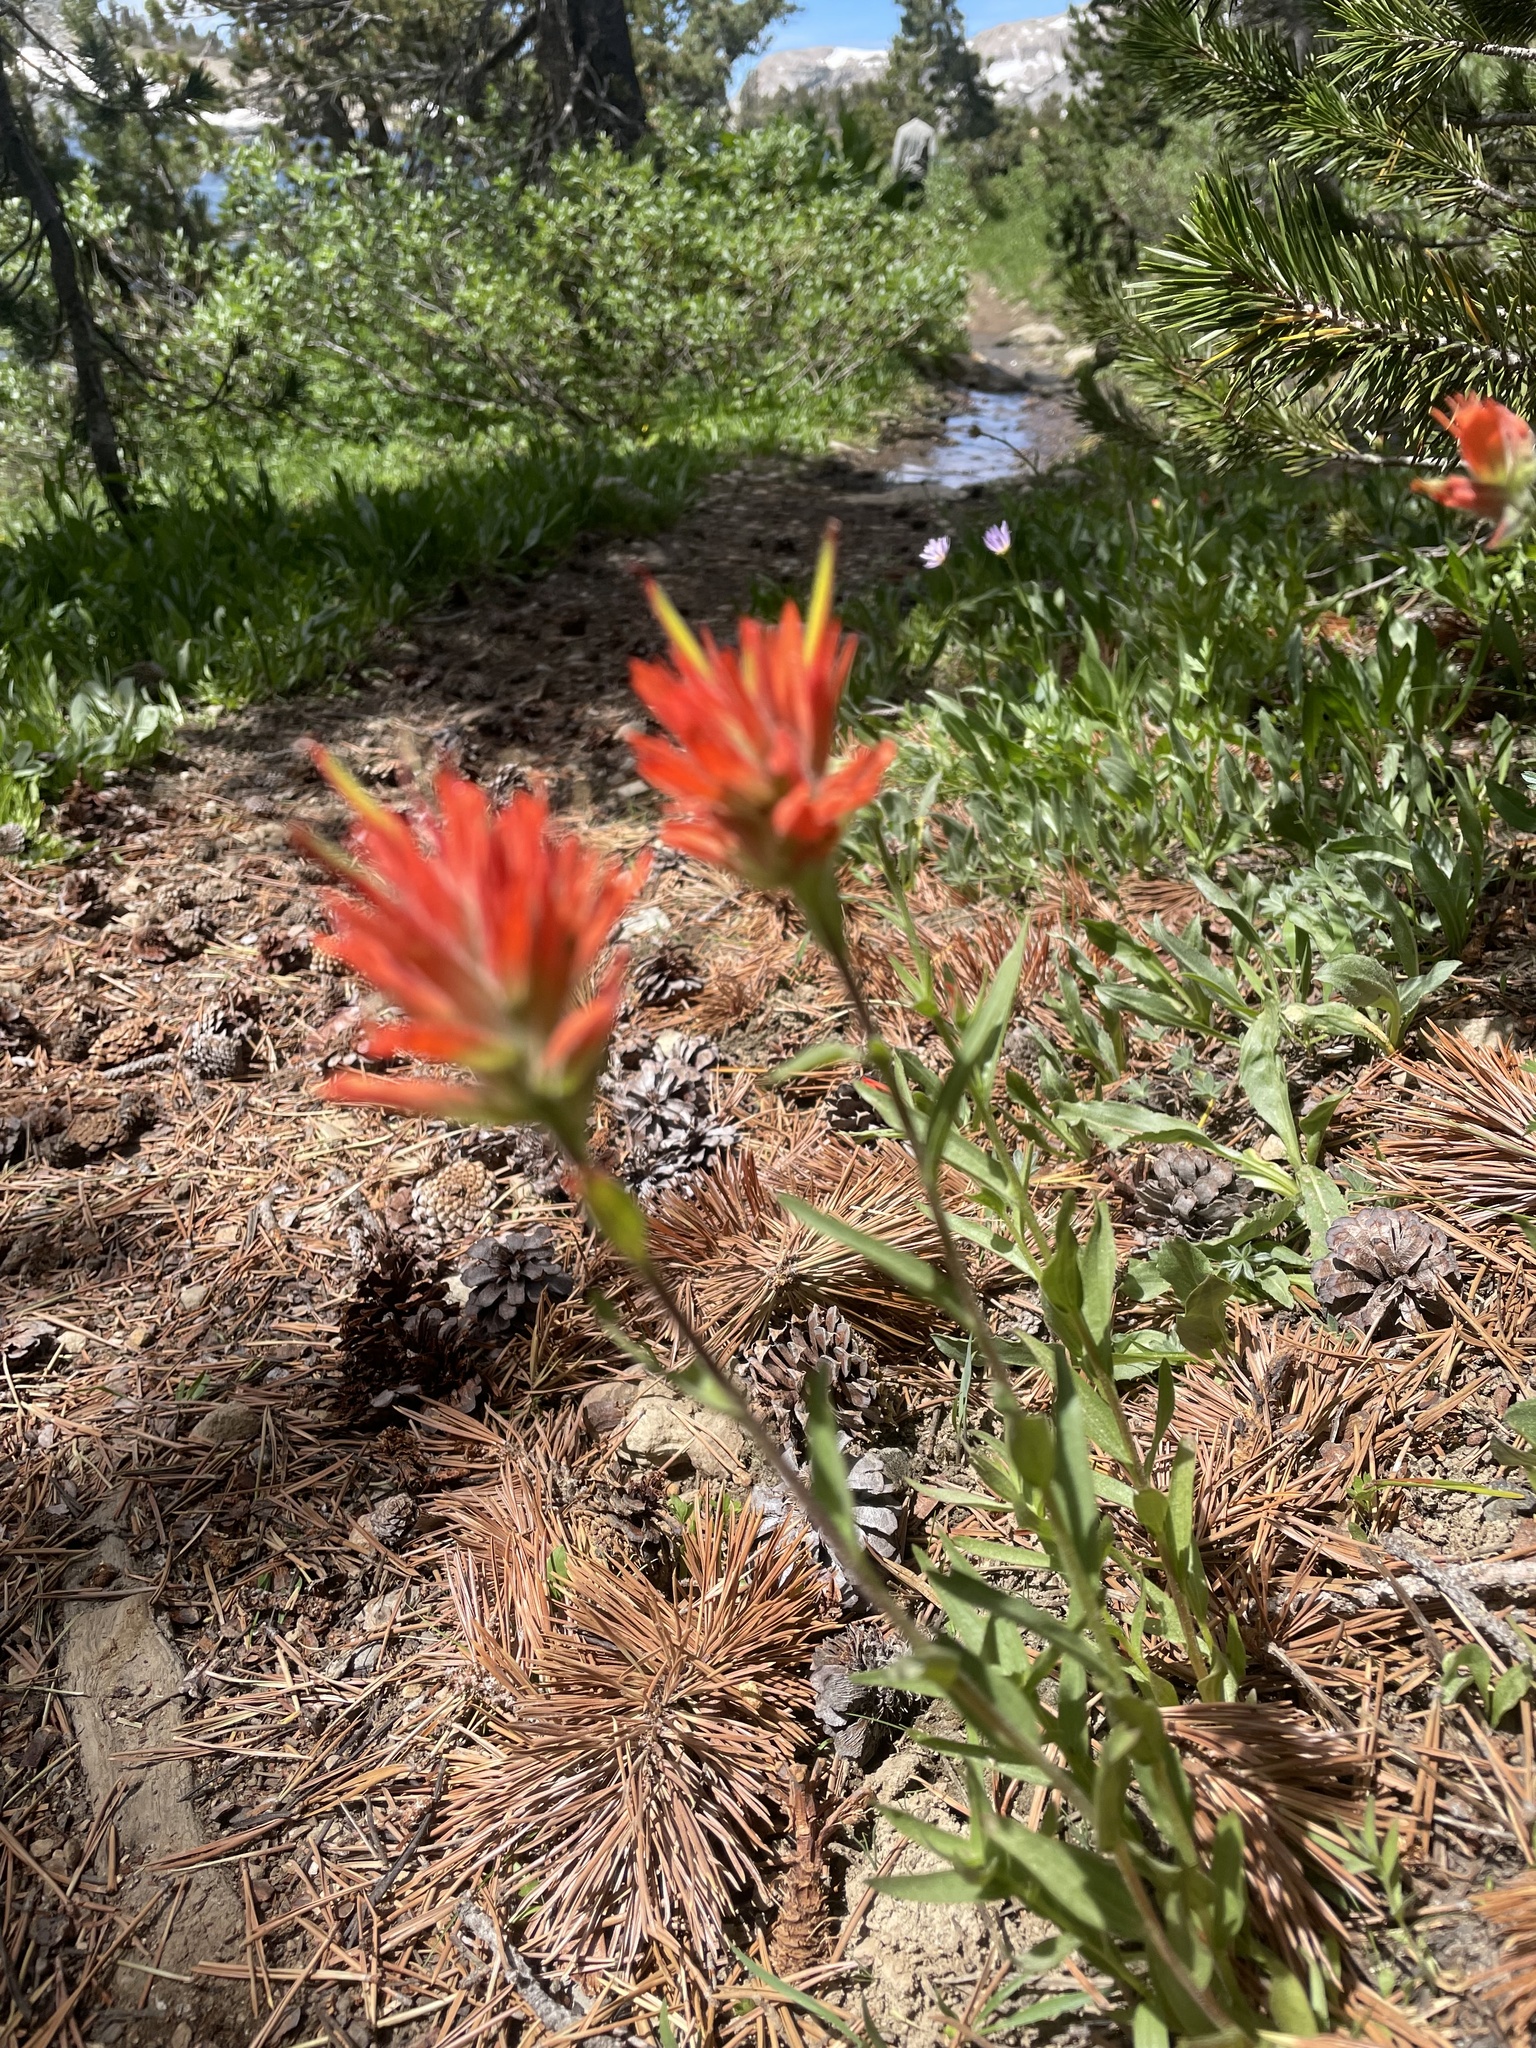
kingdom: Plantae
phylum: Tracheophyta
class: Magnoliopsida
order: Lamiales
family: Orobanchaceae
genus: Castilleja
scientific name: Castilleja miniata
